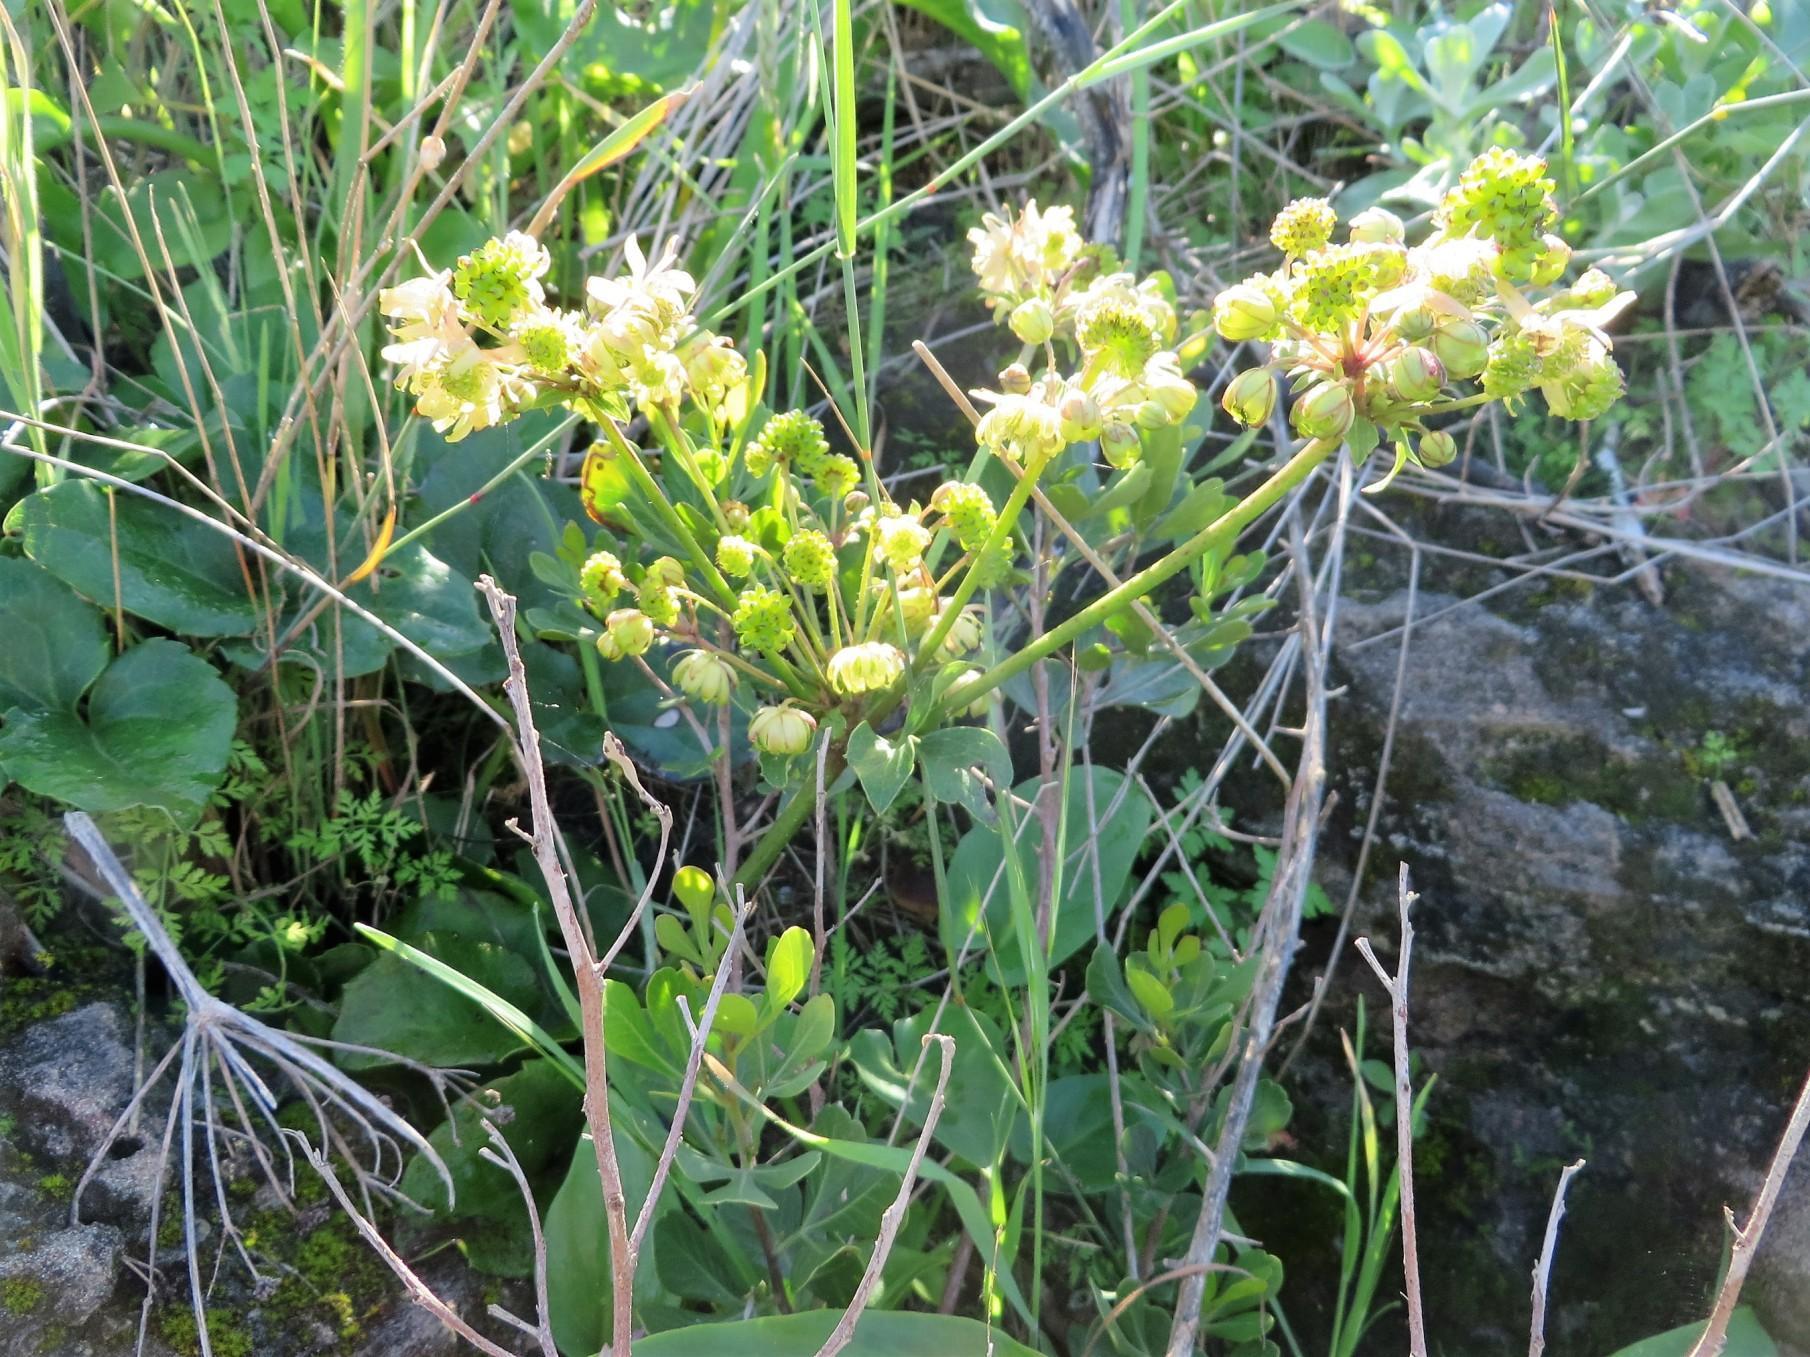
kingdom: Plantae
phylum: Tracheophyta
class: Magnoliopsida
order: Ranunculales
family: Ranunculaceae
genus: Knowltonia
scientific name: Knowltonia vesicatoria
